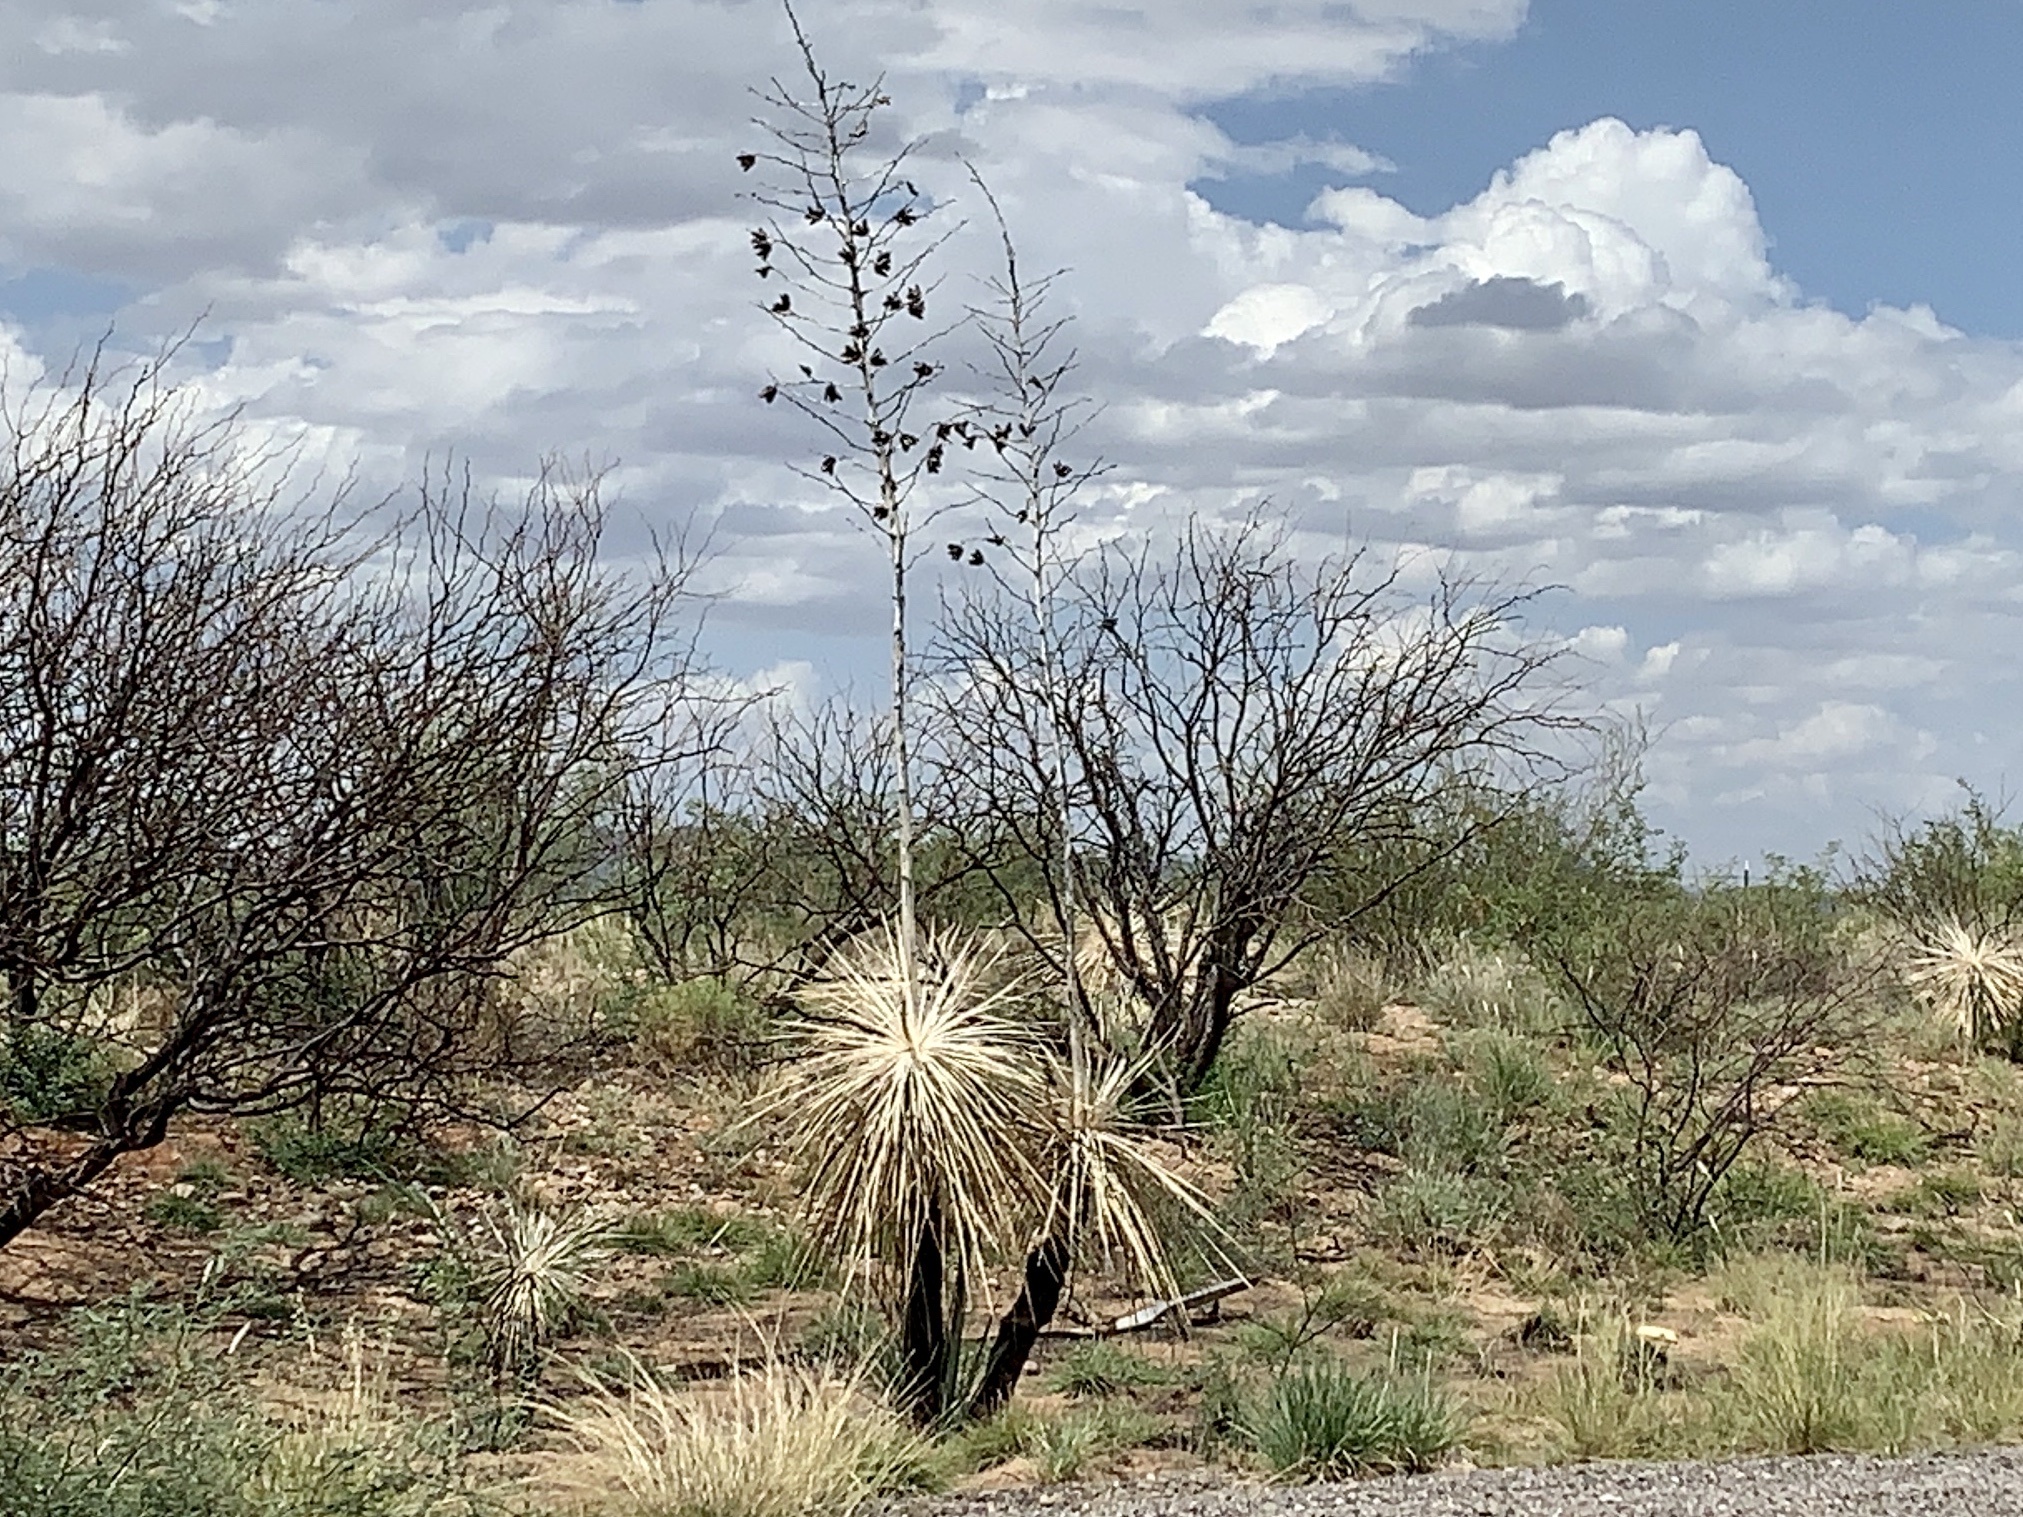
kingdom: Plantae
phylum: Tracheophyta
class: Liliopsida
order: Asparagales
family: Asparagaceae
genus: Yucca
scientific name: Yucca elata
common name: Palmella
